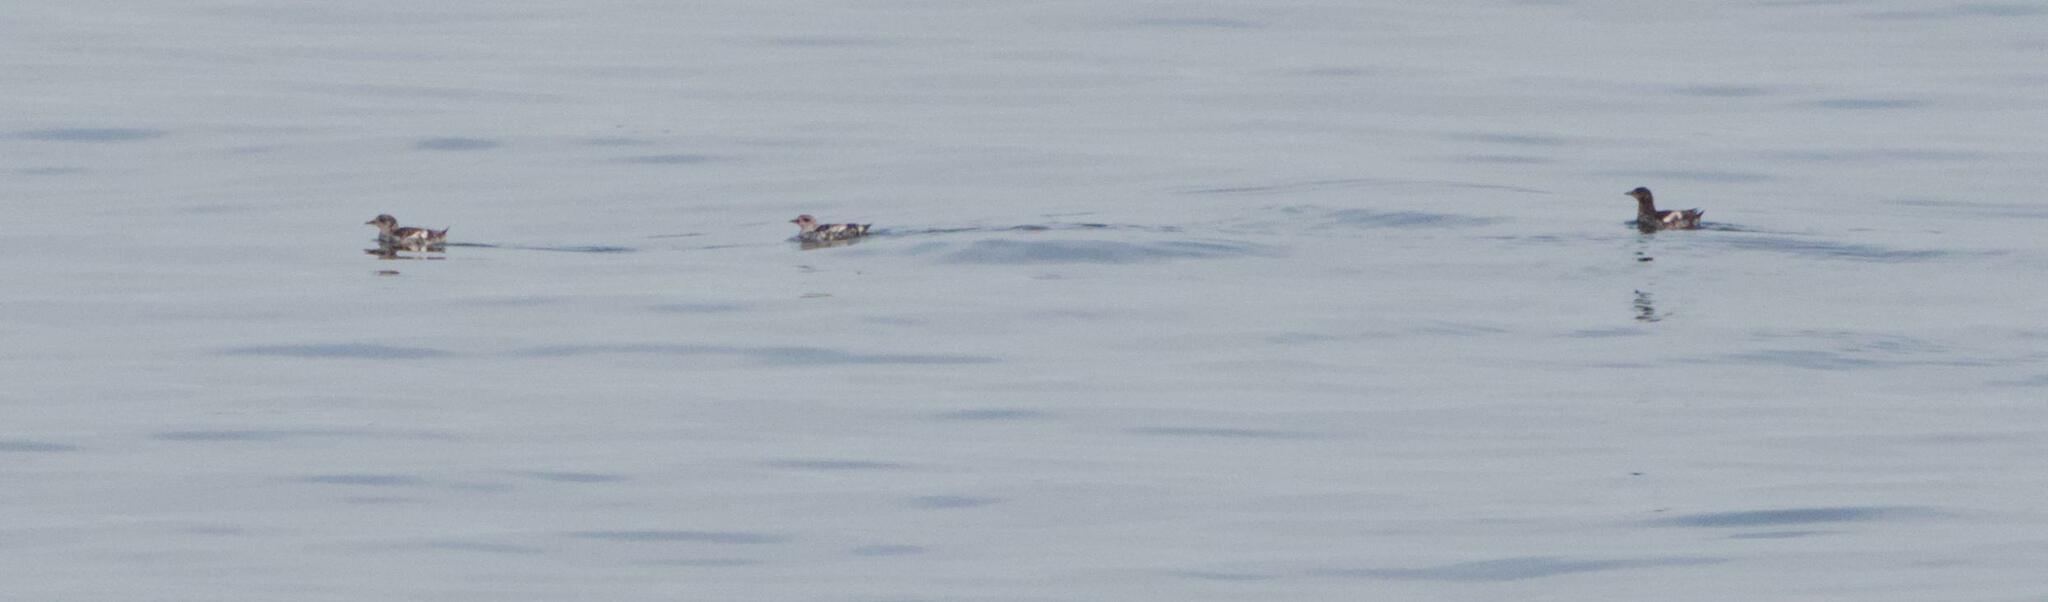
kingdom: Animalia
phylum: Chordata
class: Aves
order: Charadriiformes
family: Alcidae
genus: Cepphus
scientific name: Cepphus grylle
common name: Black guillemot
